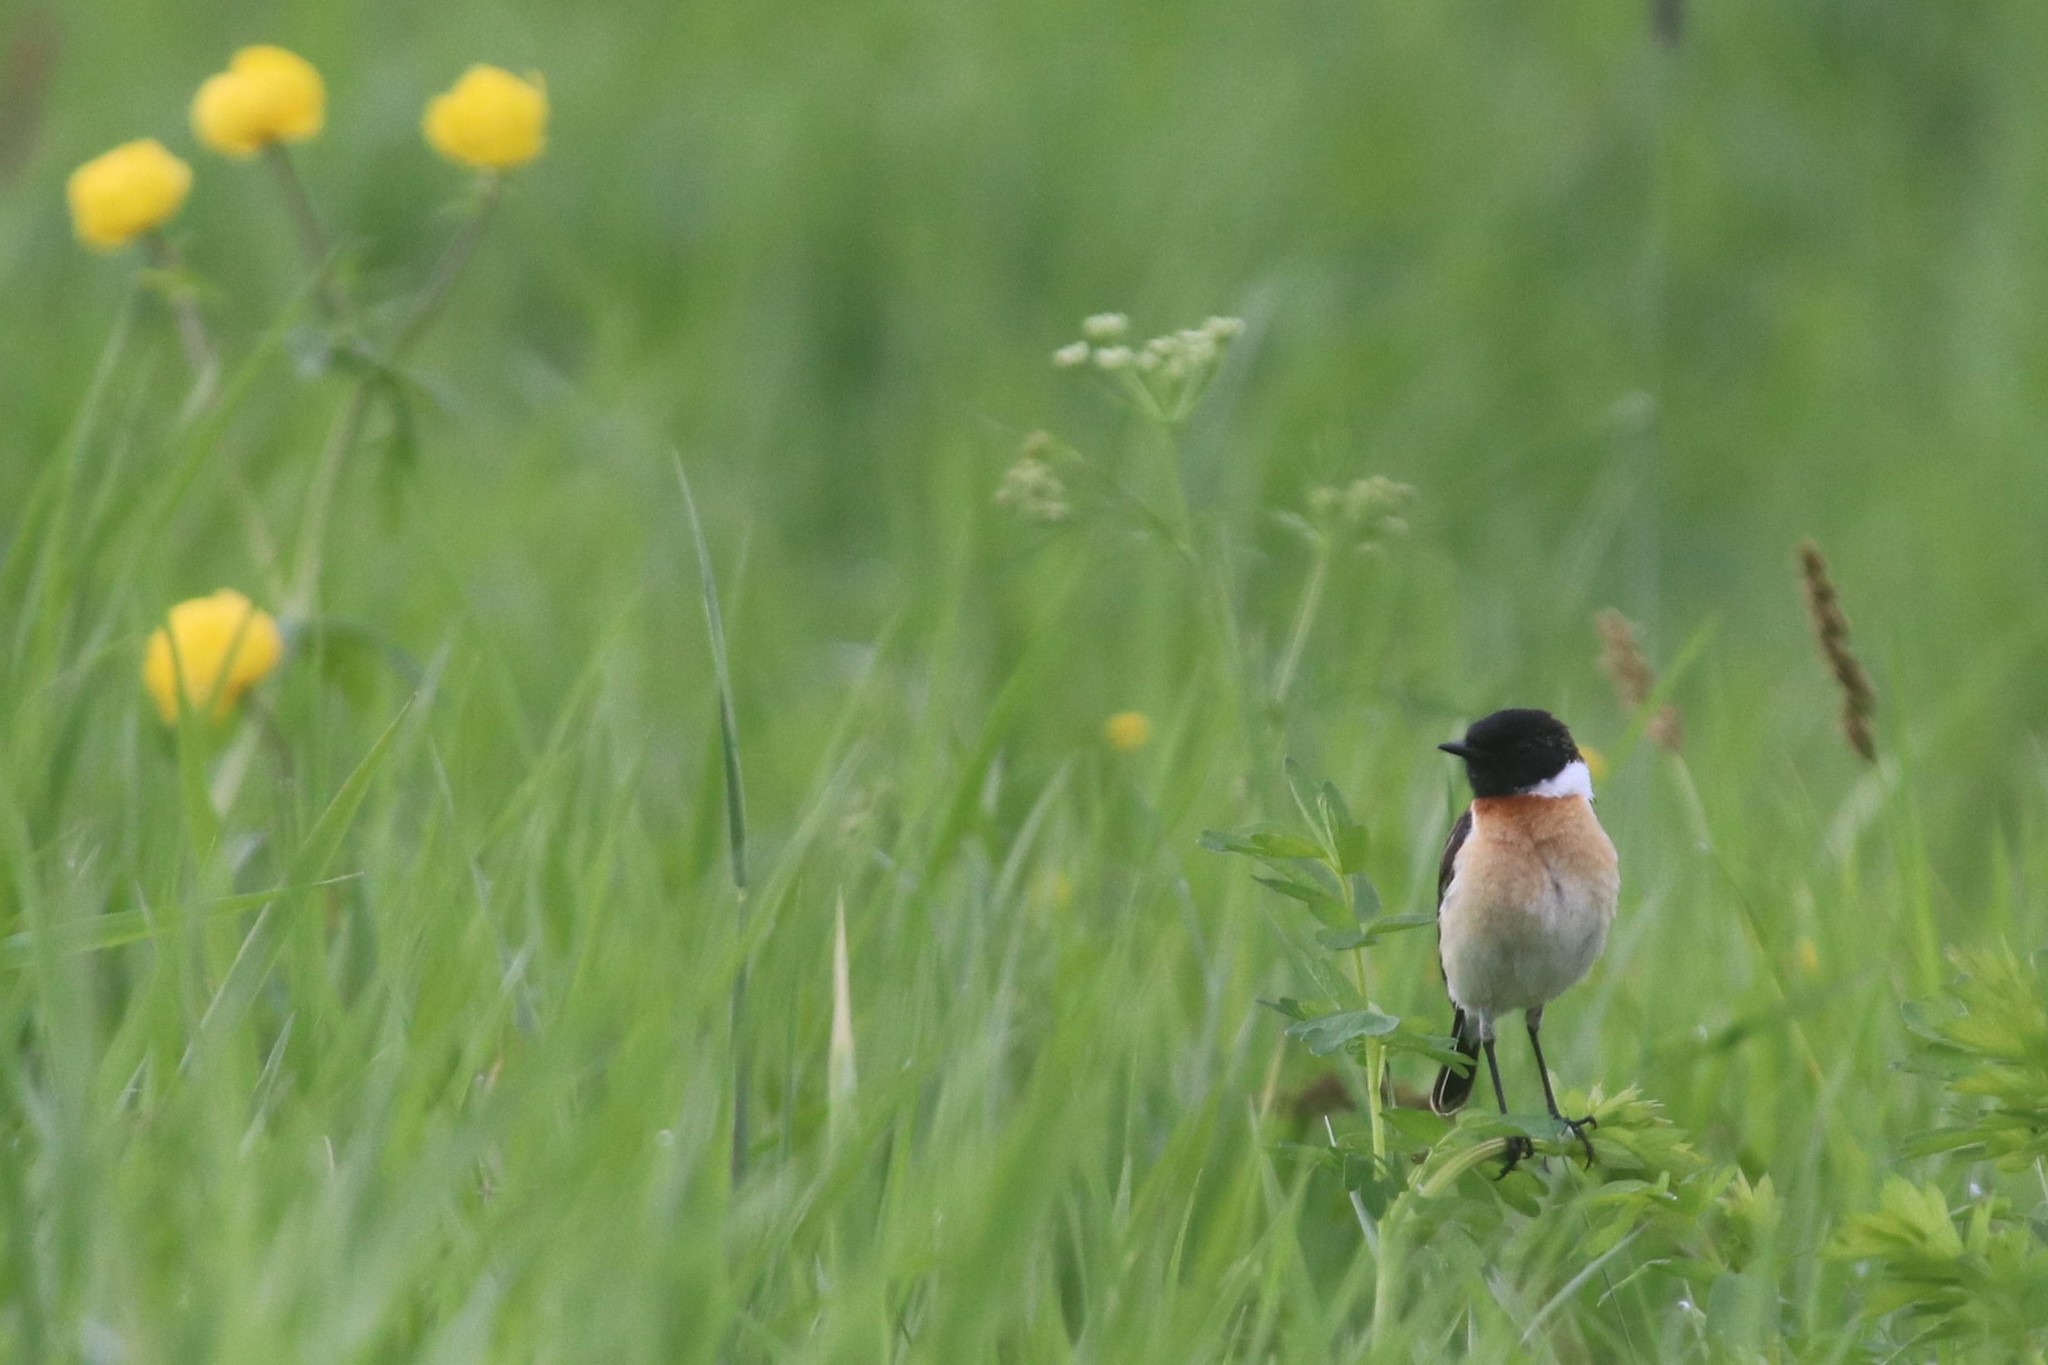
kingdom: Animalia
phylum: Chordata
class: Aves
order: Passeriformes
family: Muscicapidae
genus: Saxicola
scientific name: Saxicola maurus
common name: Siberian stonechat
